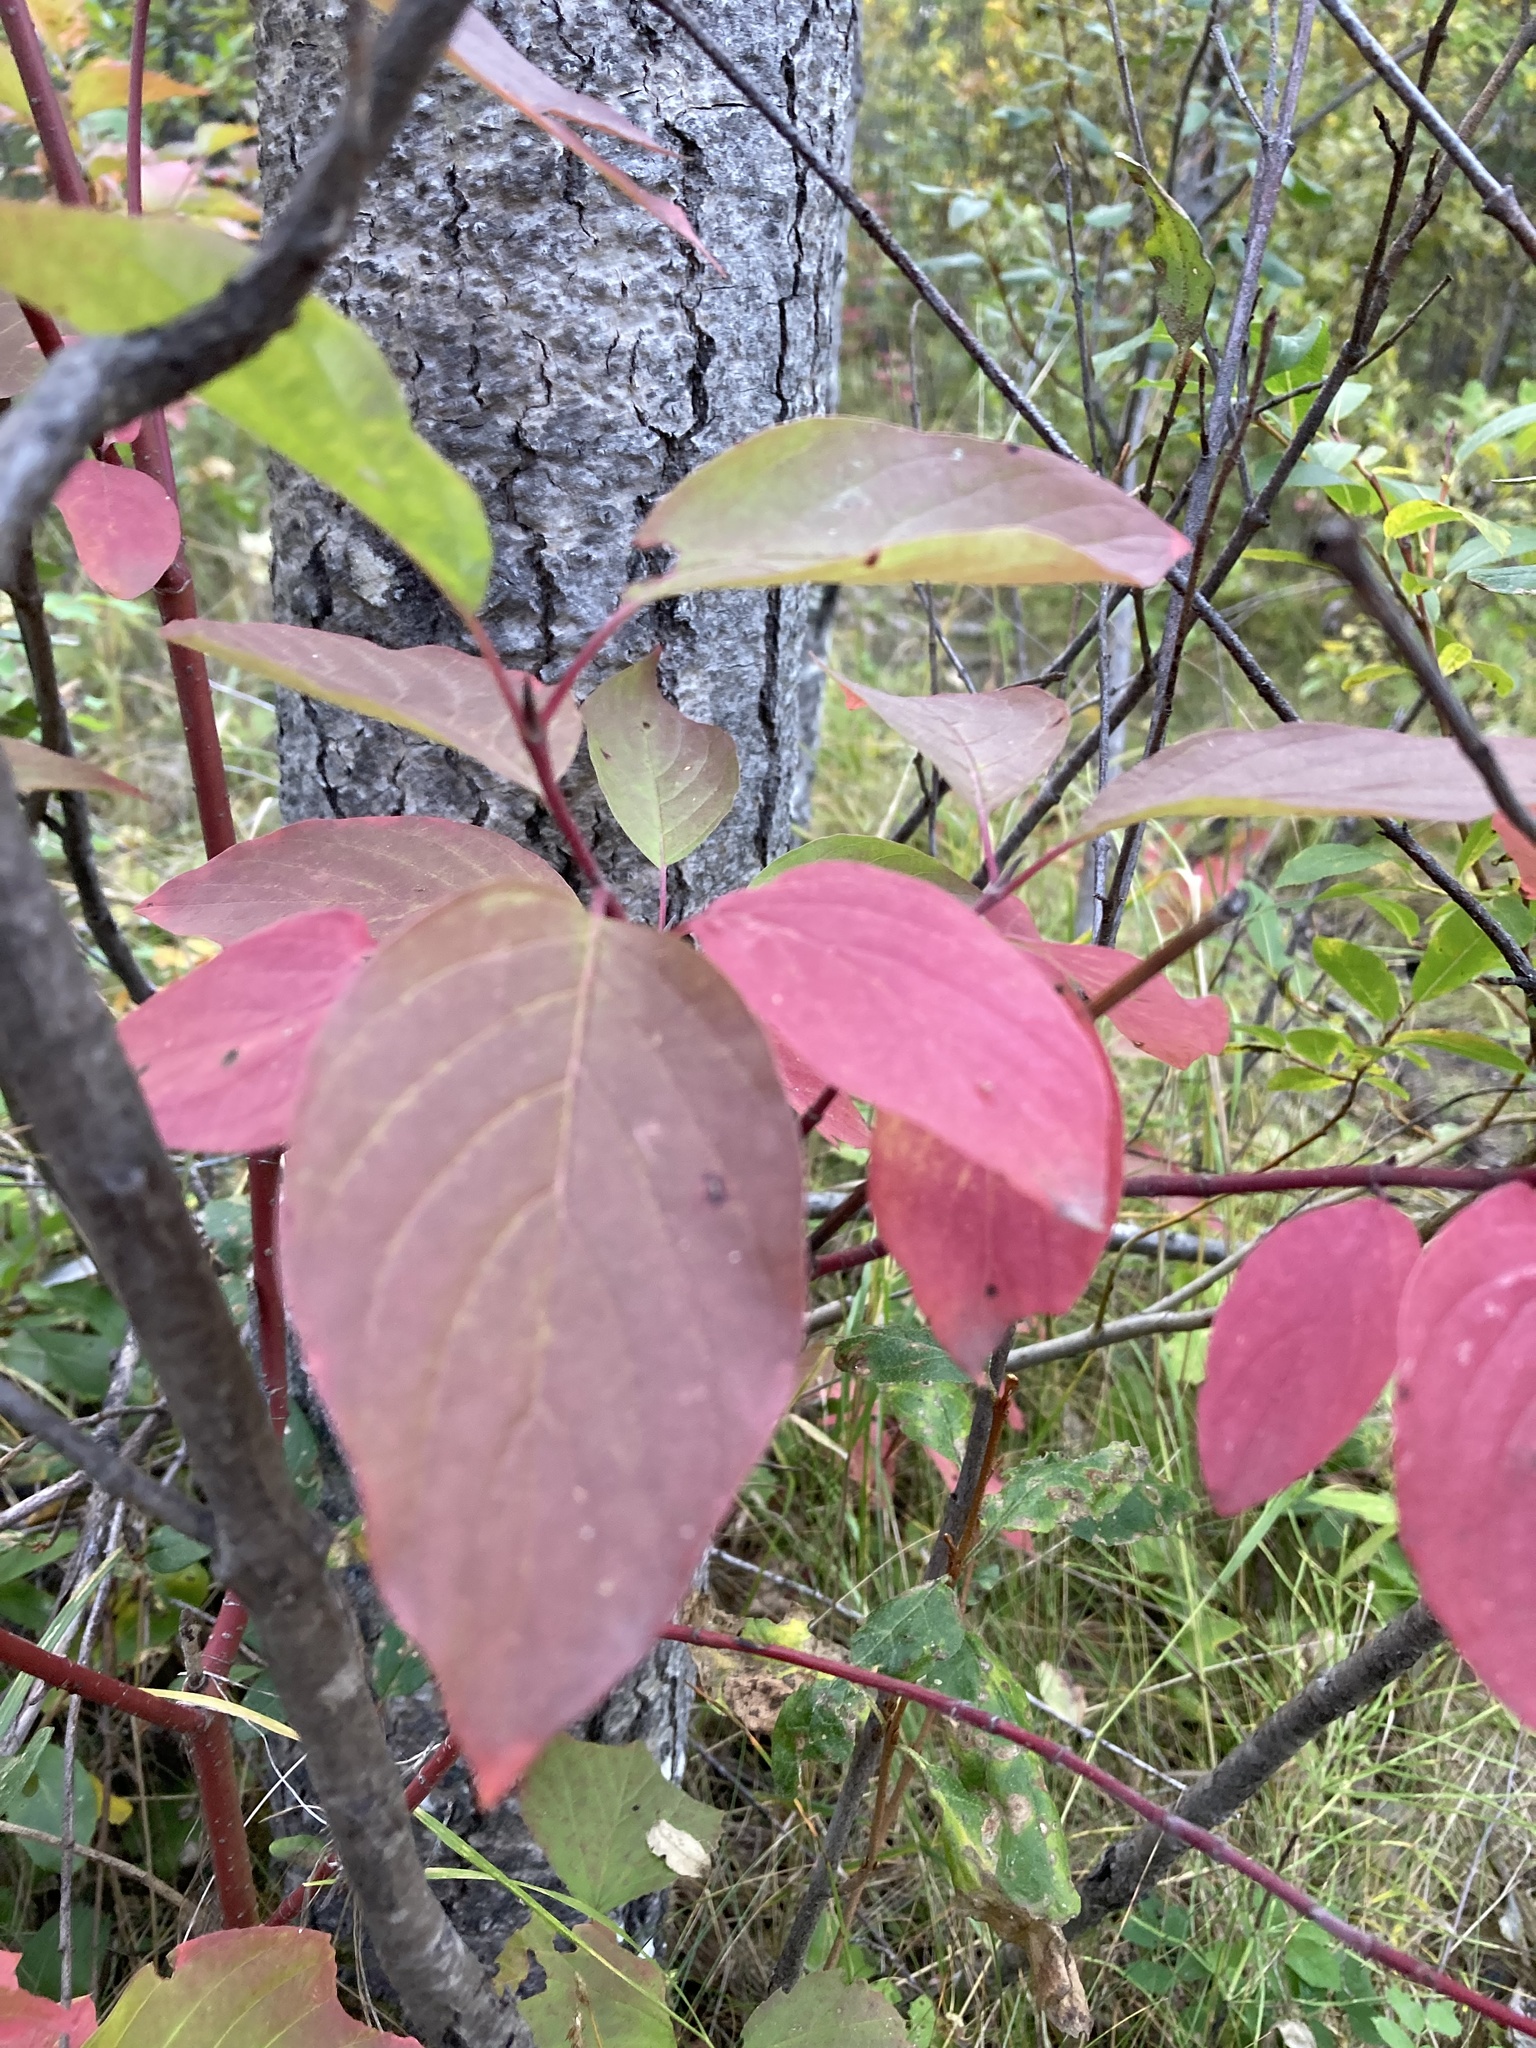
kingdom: Plantae
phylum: Tracheophyta
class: Magnoliopsida
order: Cornales
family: Cornaceae
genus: Cornus
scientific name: Cornus sericea
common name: Red-osier dogwood
